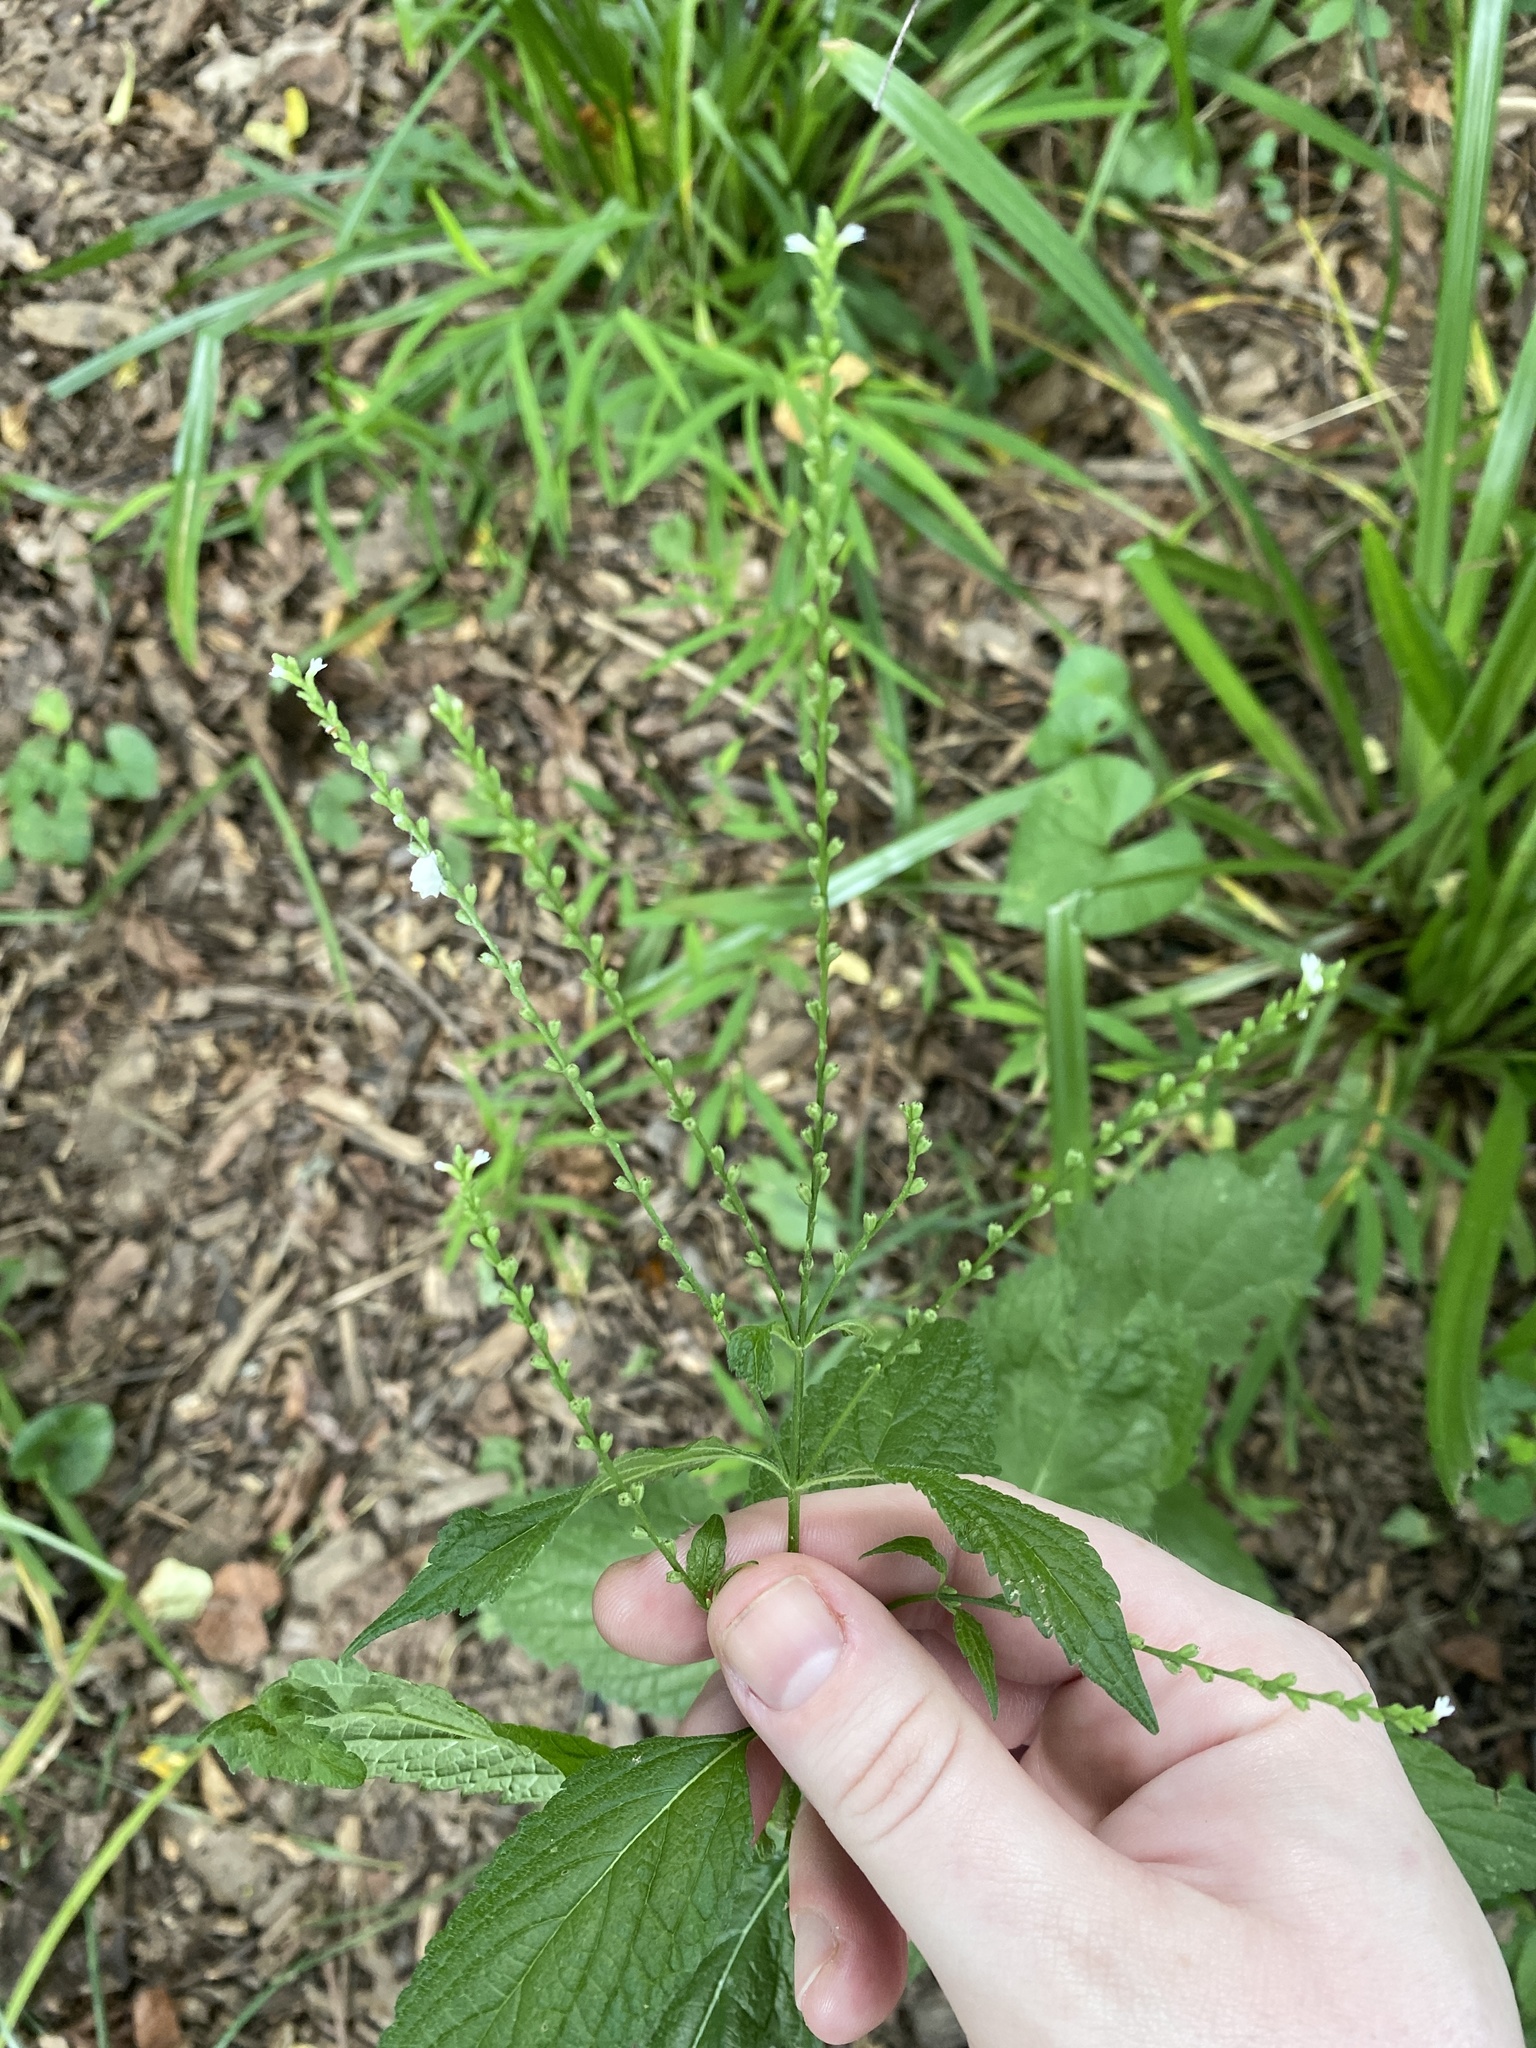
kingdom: Plantae
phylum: Tracheophyta
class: Magnoliopsida
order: Lamiales
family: Verbenaceae
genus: Verbena
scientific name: Verbena urticifolia
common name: Nettle-leaved vervain
